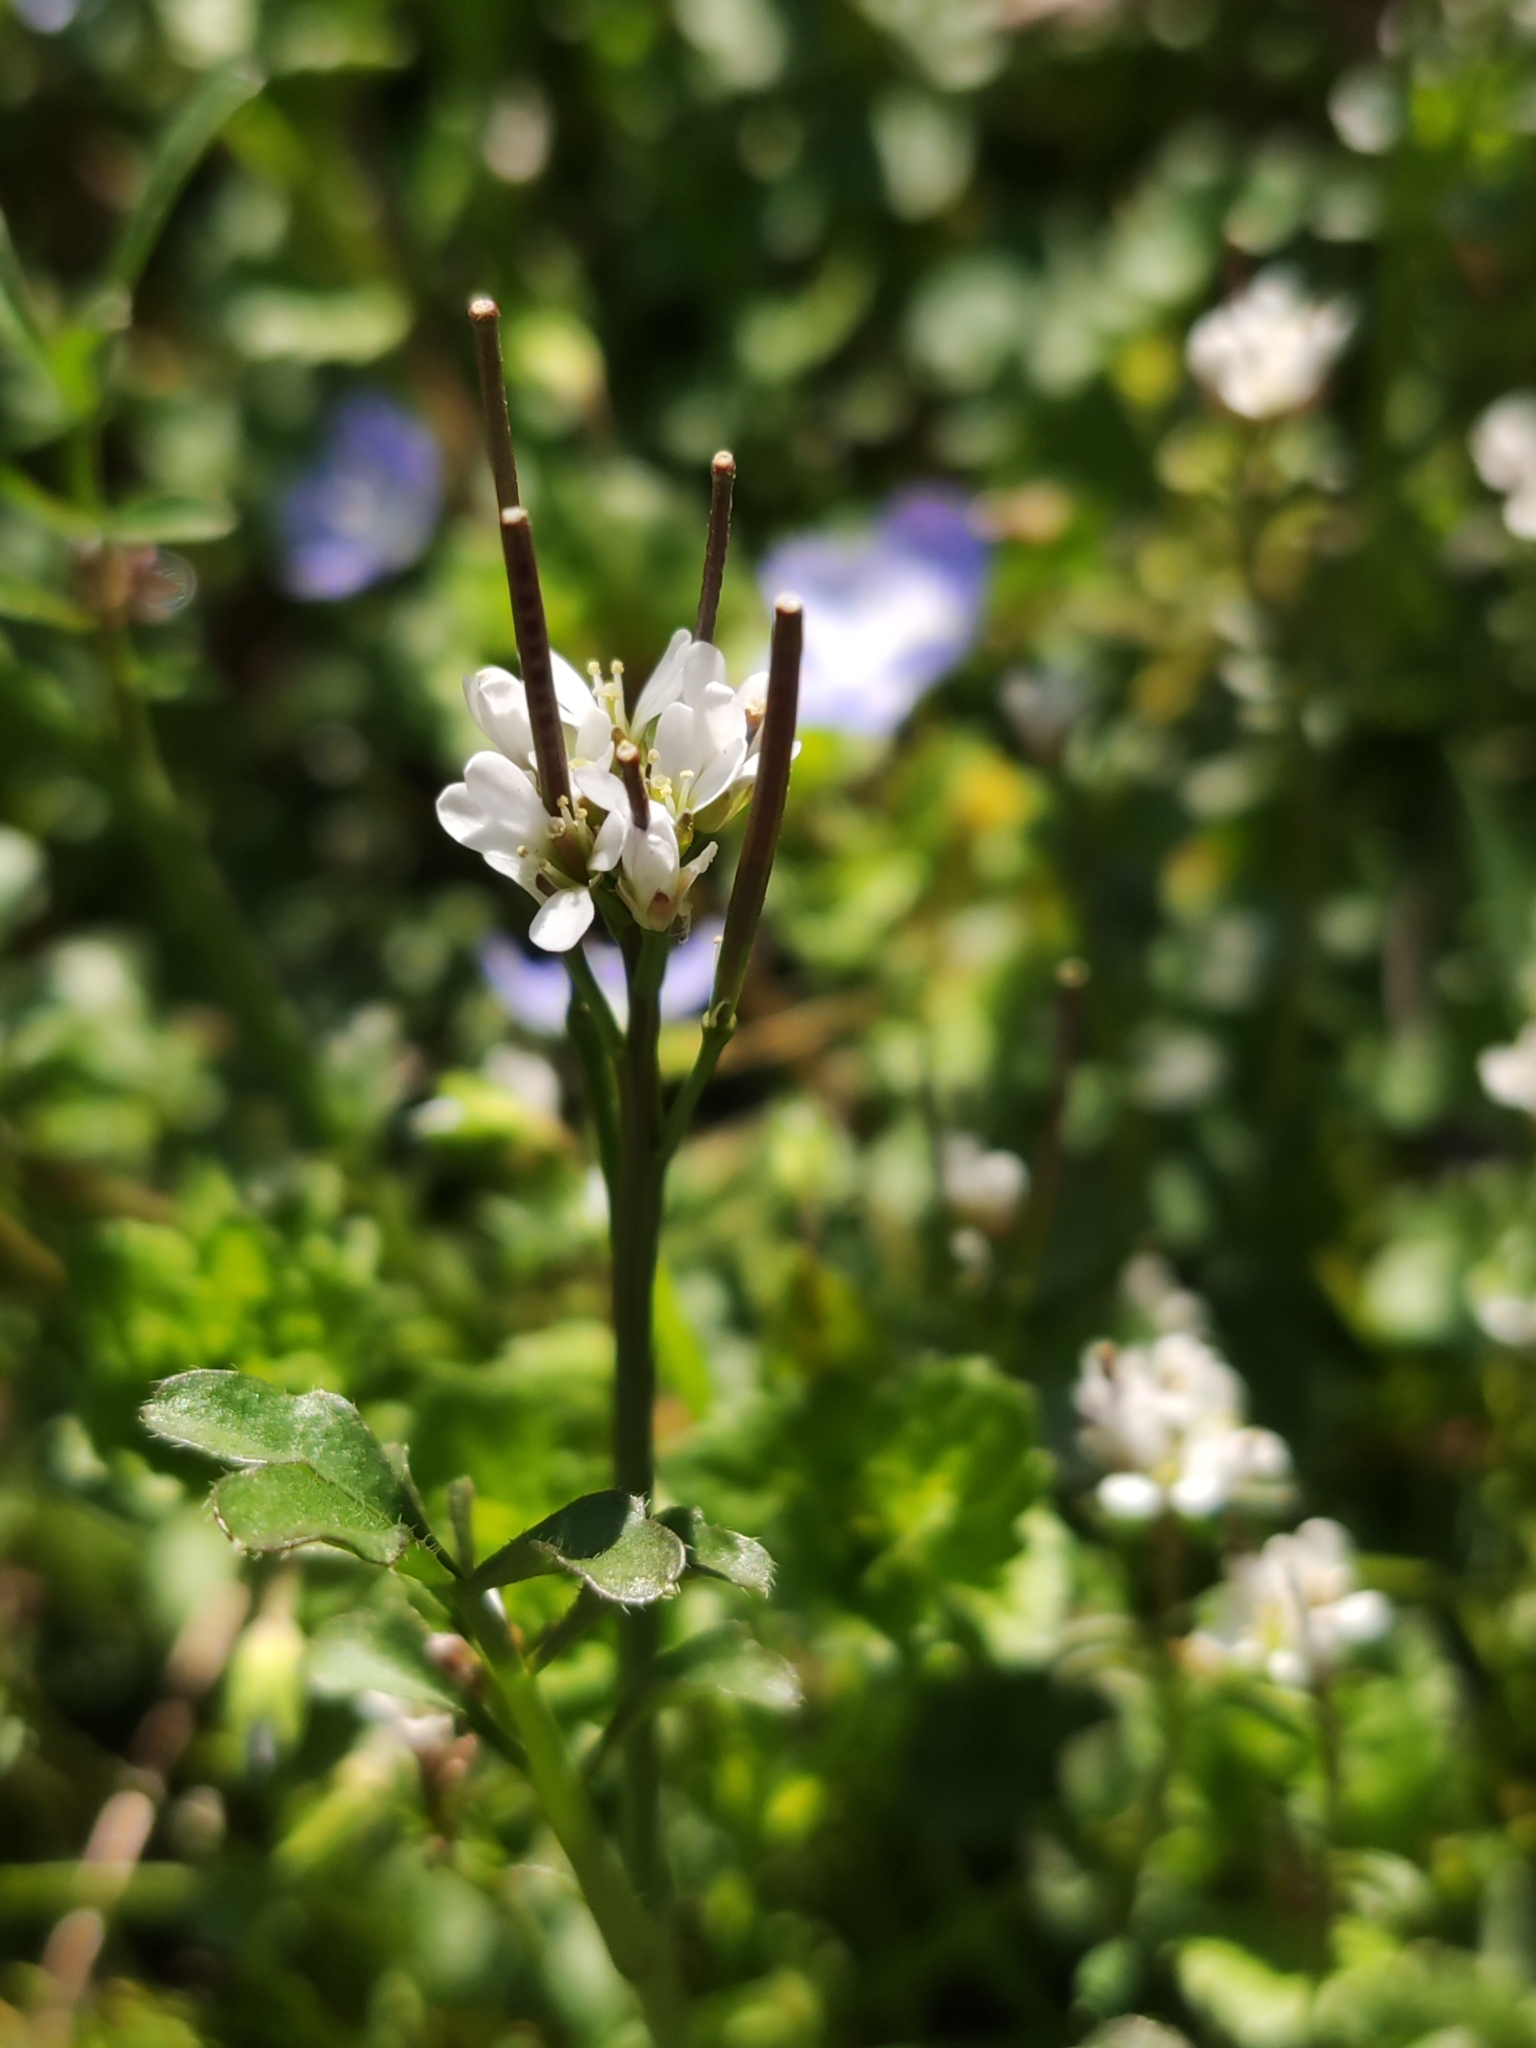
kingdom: Plantae
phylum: Tracheophyta
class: Magnoliopsida
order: Brassicales
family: Brassicaceae
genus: Cardamine
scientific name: Cardamine hirsuta
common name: Hairy bittercress
